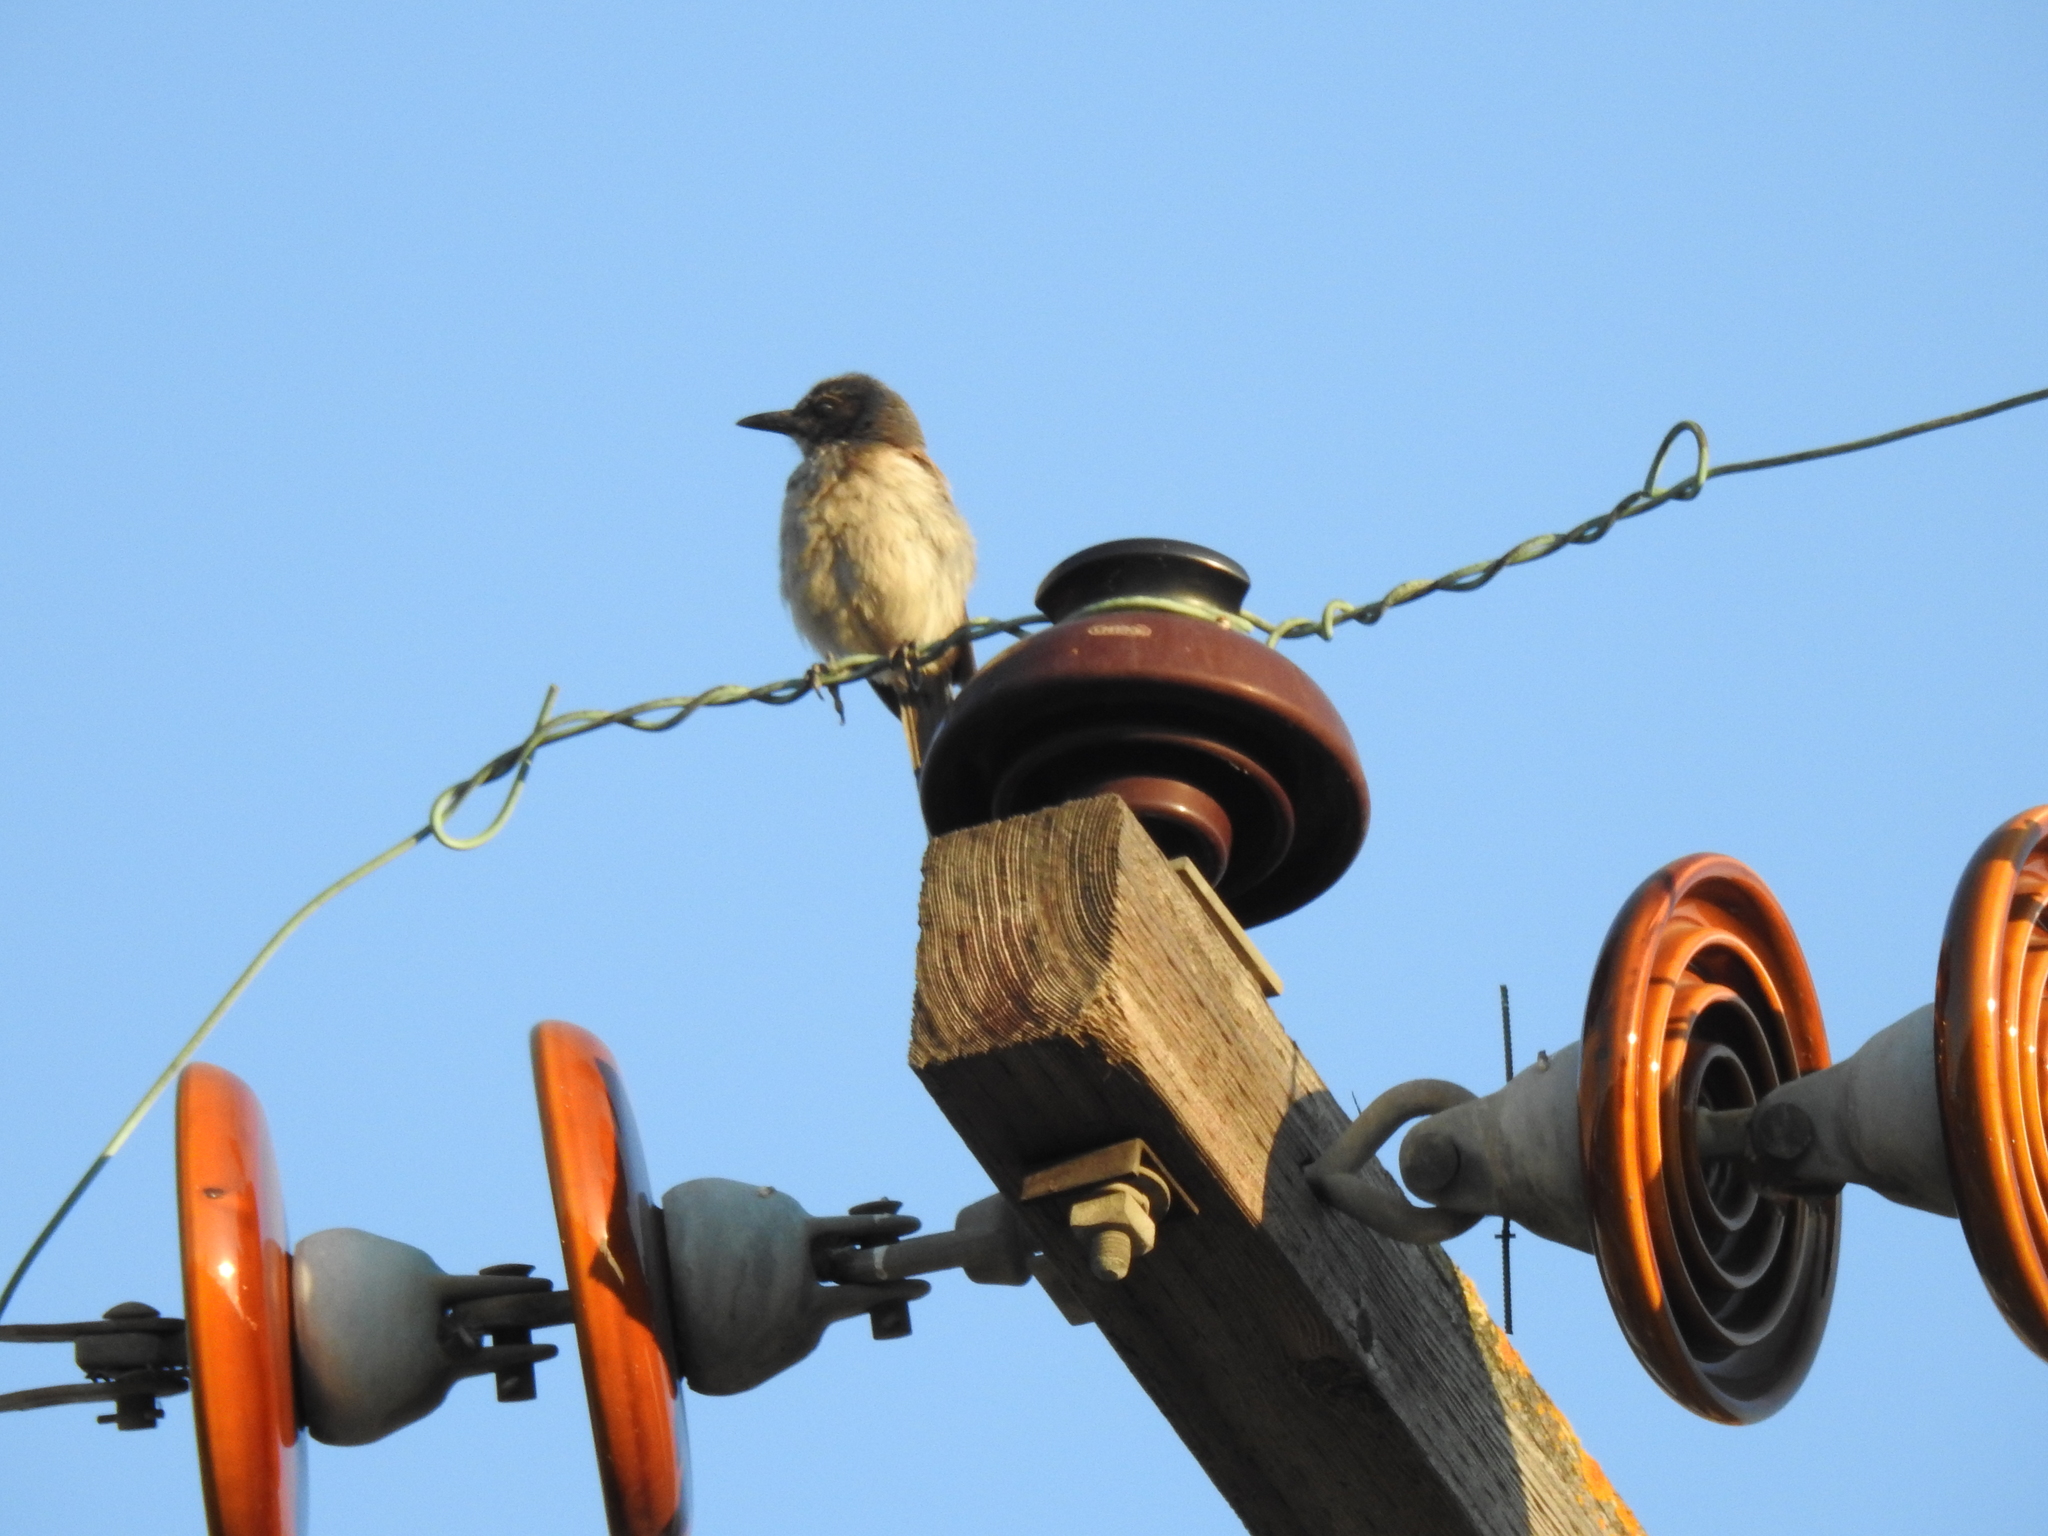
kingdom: Animalia
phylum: Chordata
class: Aves
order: Passeriformes
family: Corvidae
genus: Aphelocoma
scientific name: Aphelocoma californica
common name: California scrub-jay
